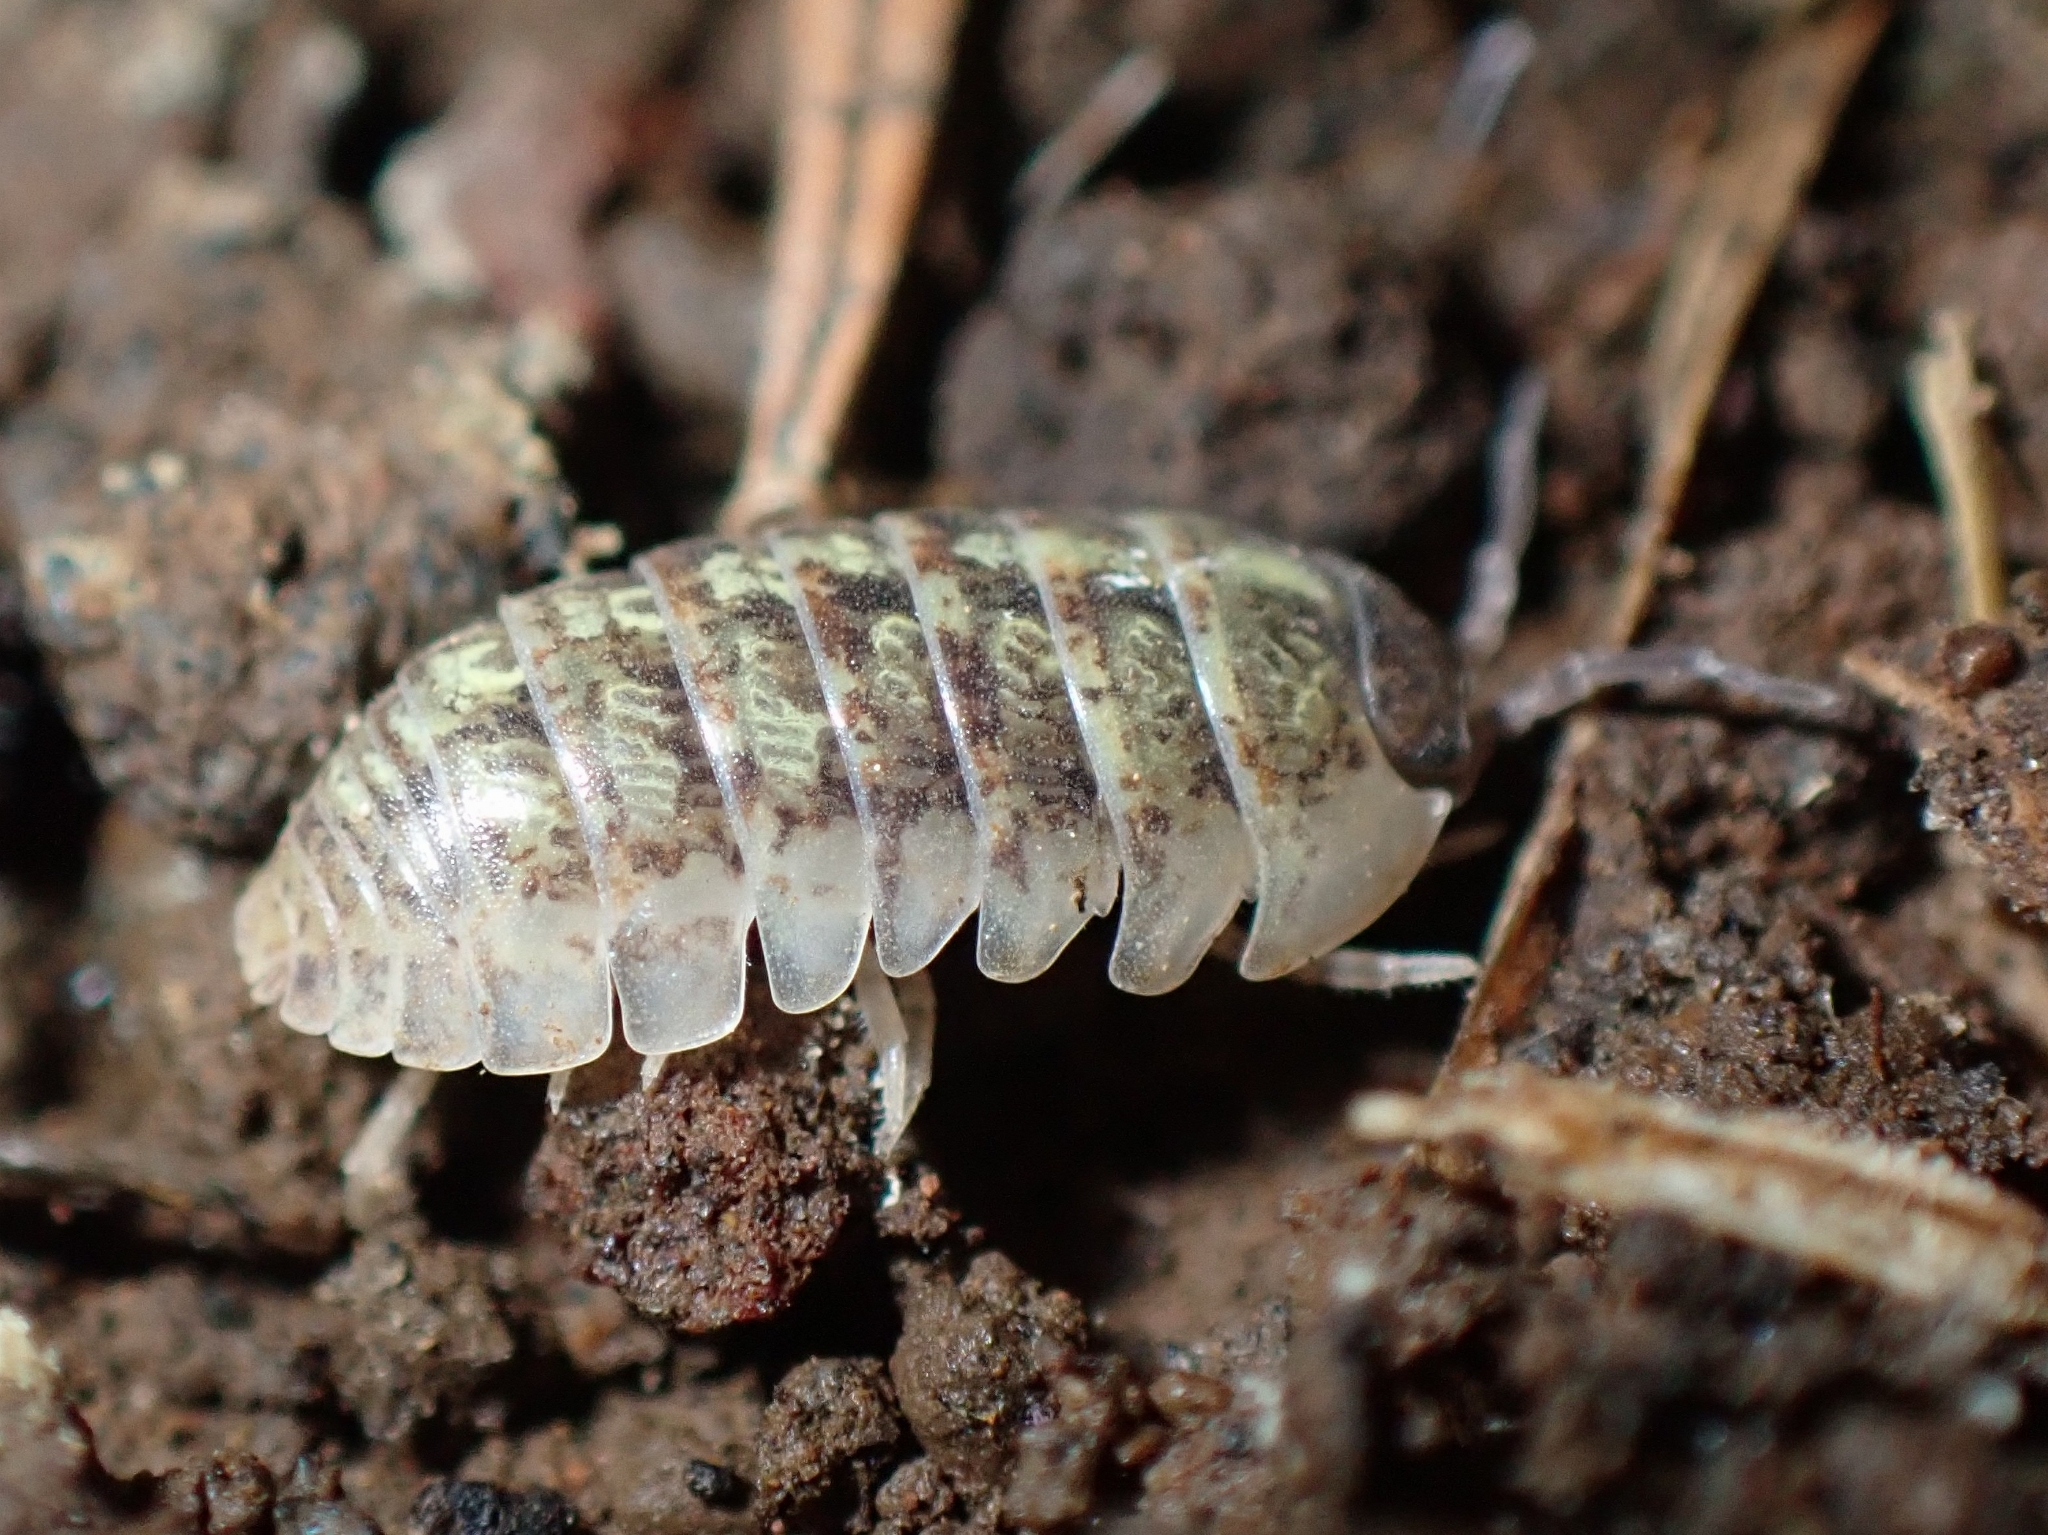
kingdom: Animalia
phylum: Arthropoda
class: Malacostraca
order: Isopoda
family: Armadillidiidae
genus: Armadillidium
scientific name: Armadillidium vulgare
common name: Common pill woodlouse
